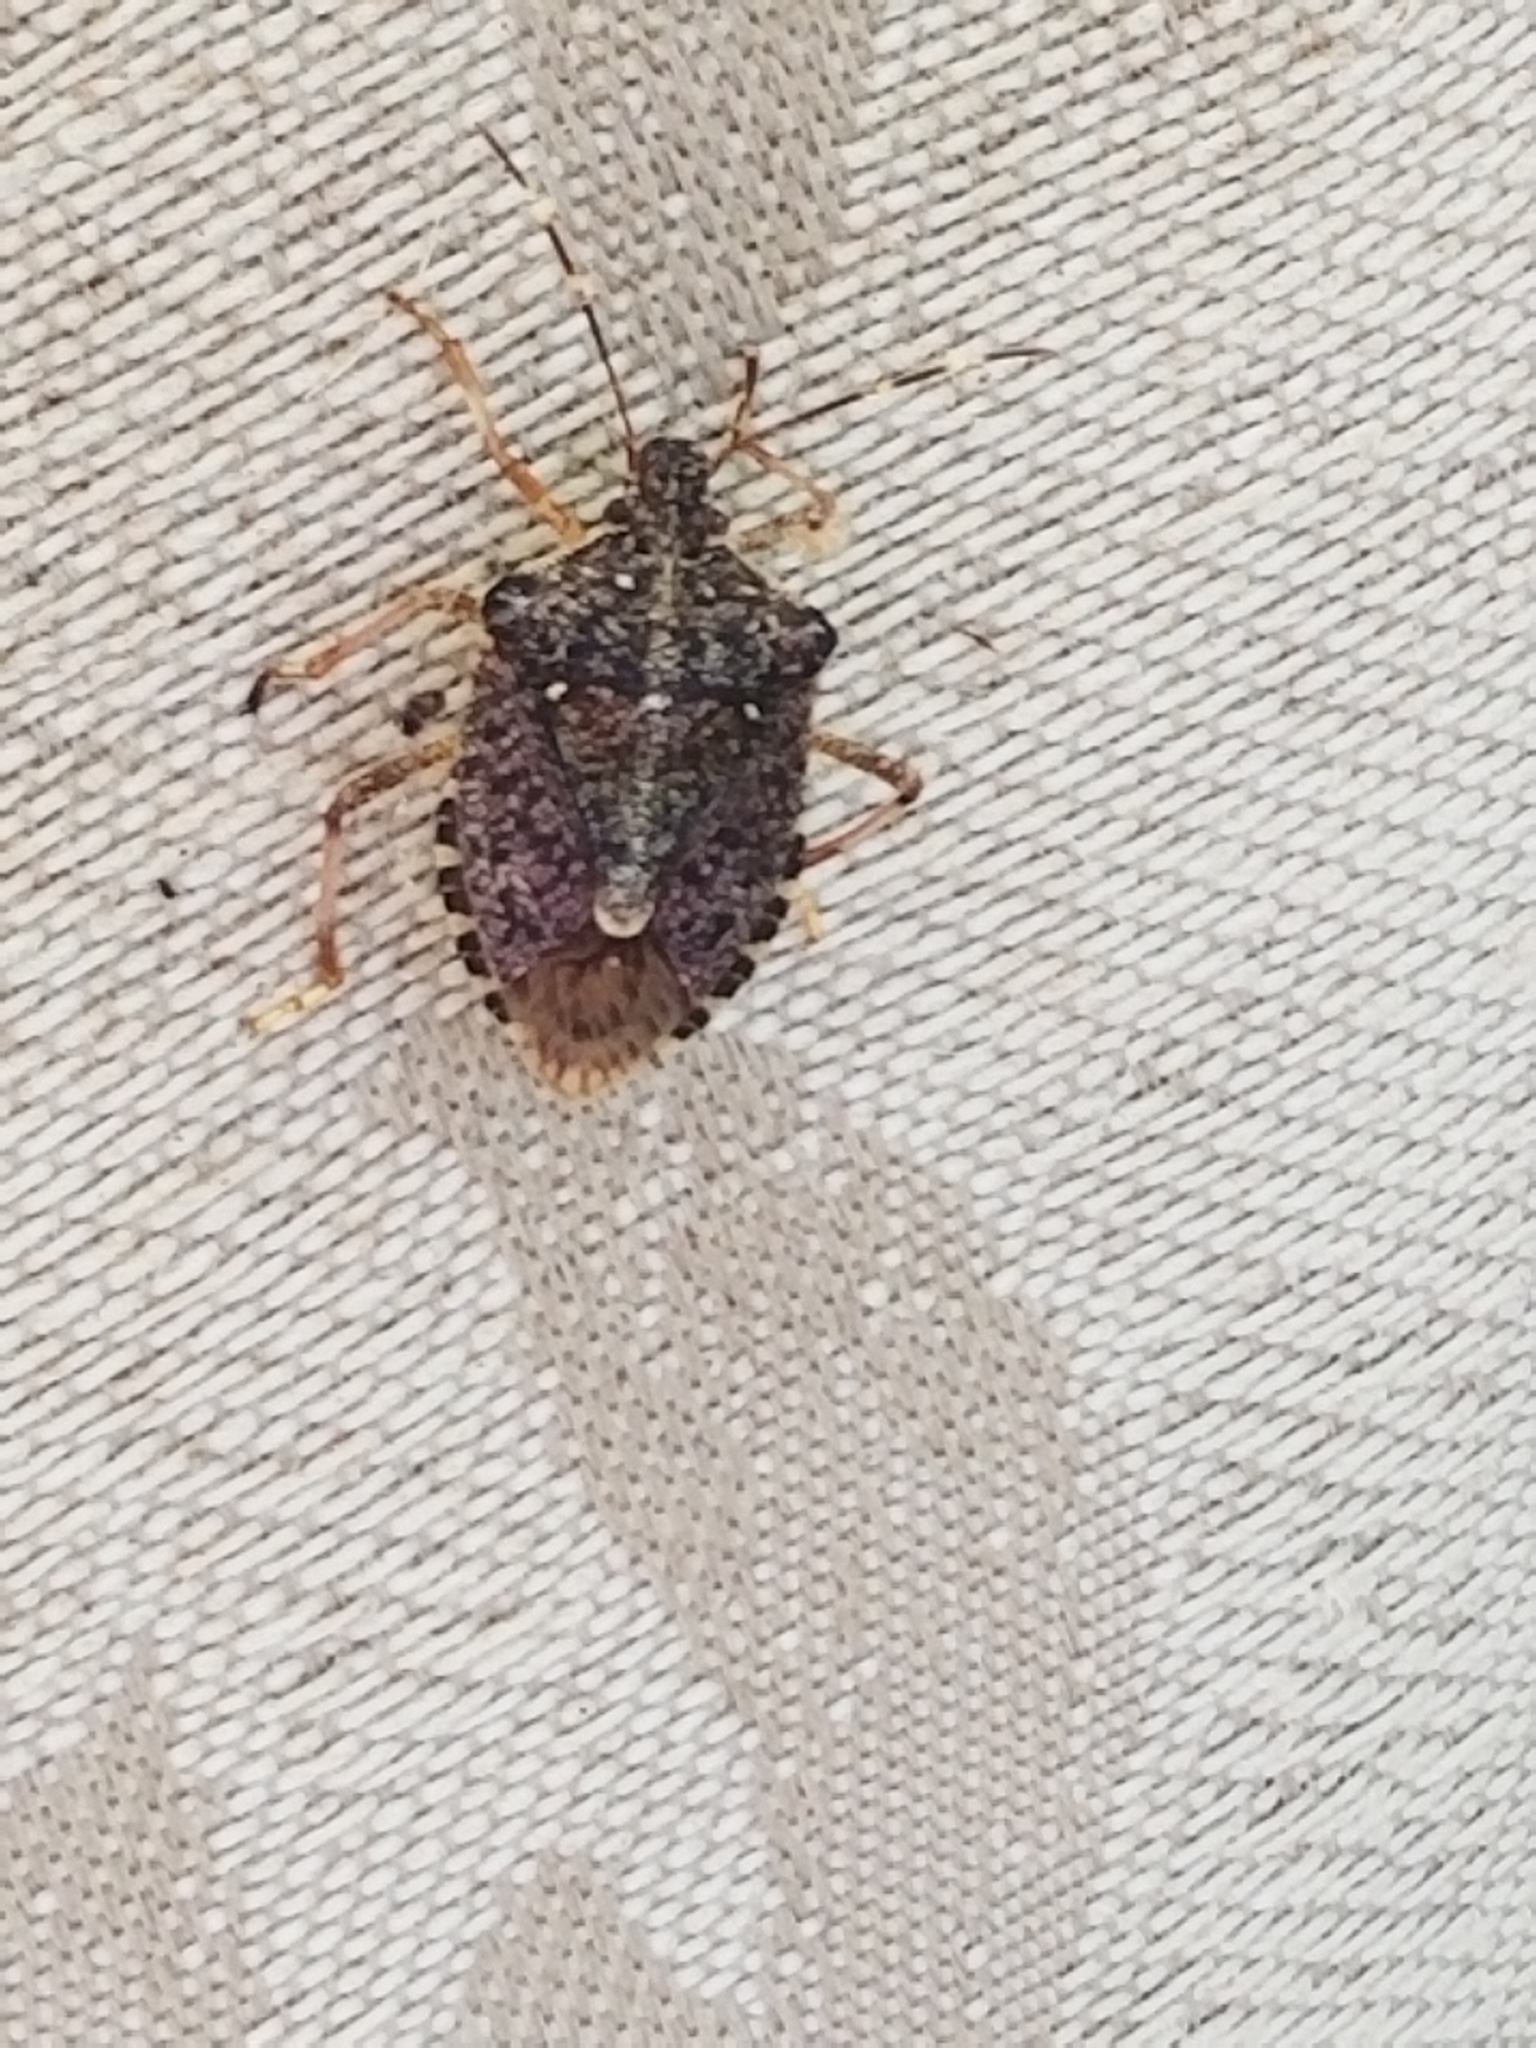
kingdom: Animalia
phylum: Arthropoda
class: Insecta
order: Hemiptera
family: Pentatomidae
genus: Halyomorpha
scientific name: Halyomorpha halys
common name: Brown marmorated stink bug
